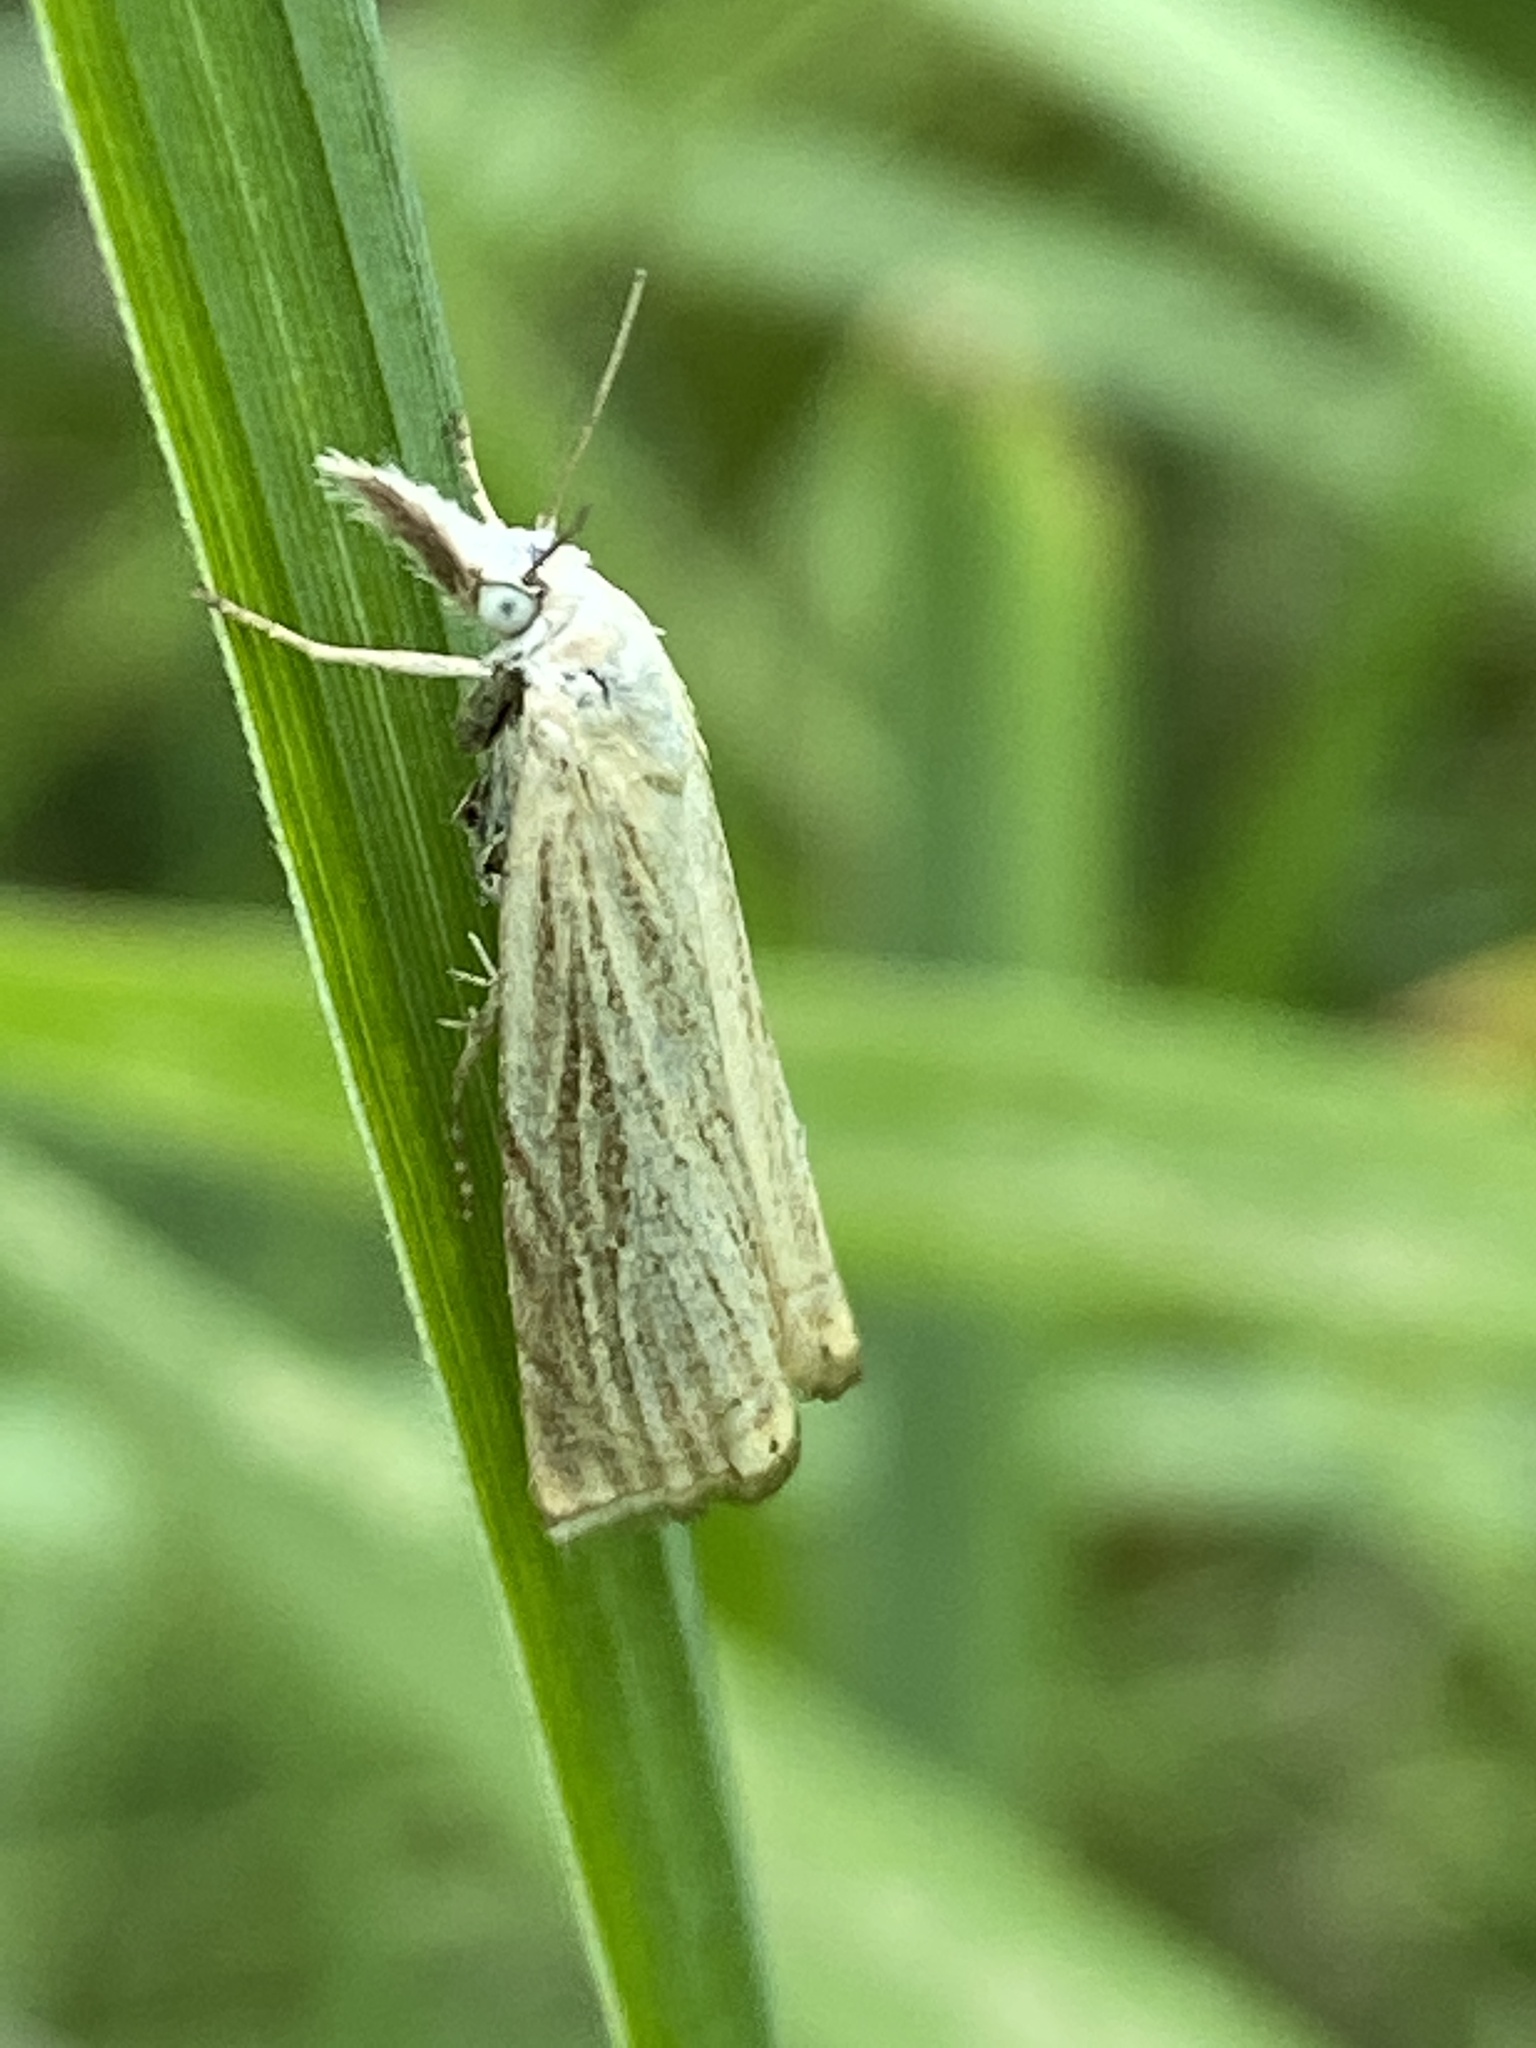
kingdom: Animalia
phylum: Arthropoda
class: Insecta
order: Lepidoptera
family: Crambidae
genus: Chrysoteuchia
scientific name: Chrysoteuchia culmella
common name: Garden grass-veneer
